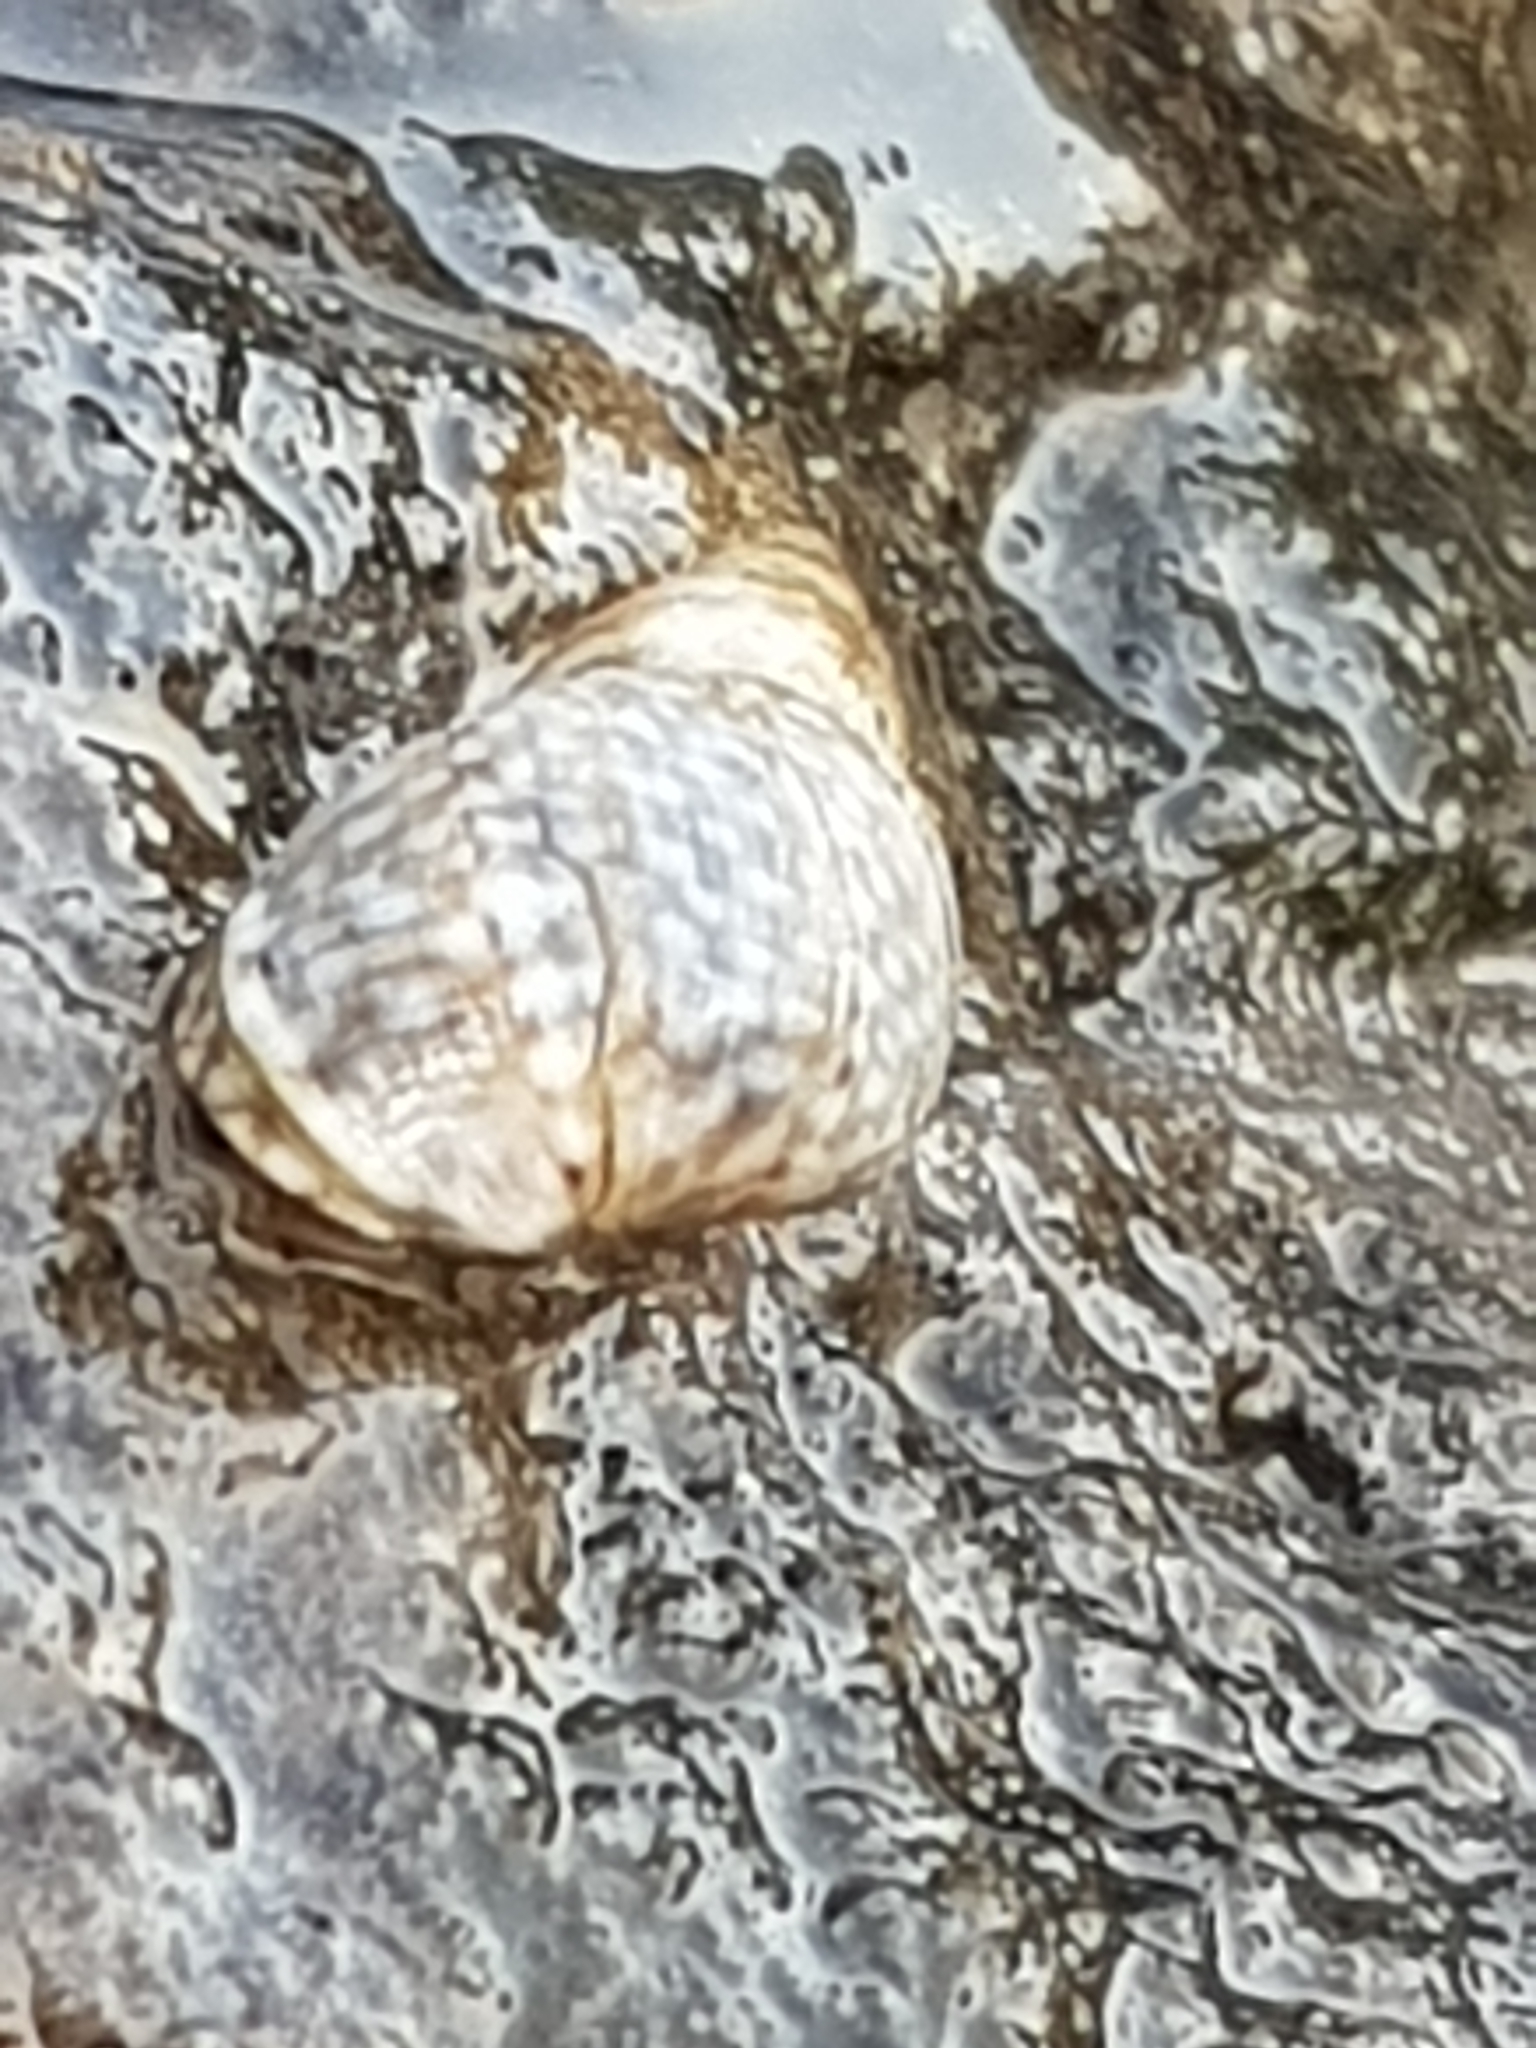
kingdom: Animalia
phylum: Mollusca
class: Gastropoda
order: Littorinimorpha
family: Littorinidae
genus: Echinolittorina
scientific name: Echinolittorina punctata
